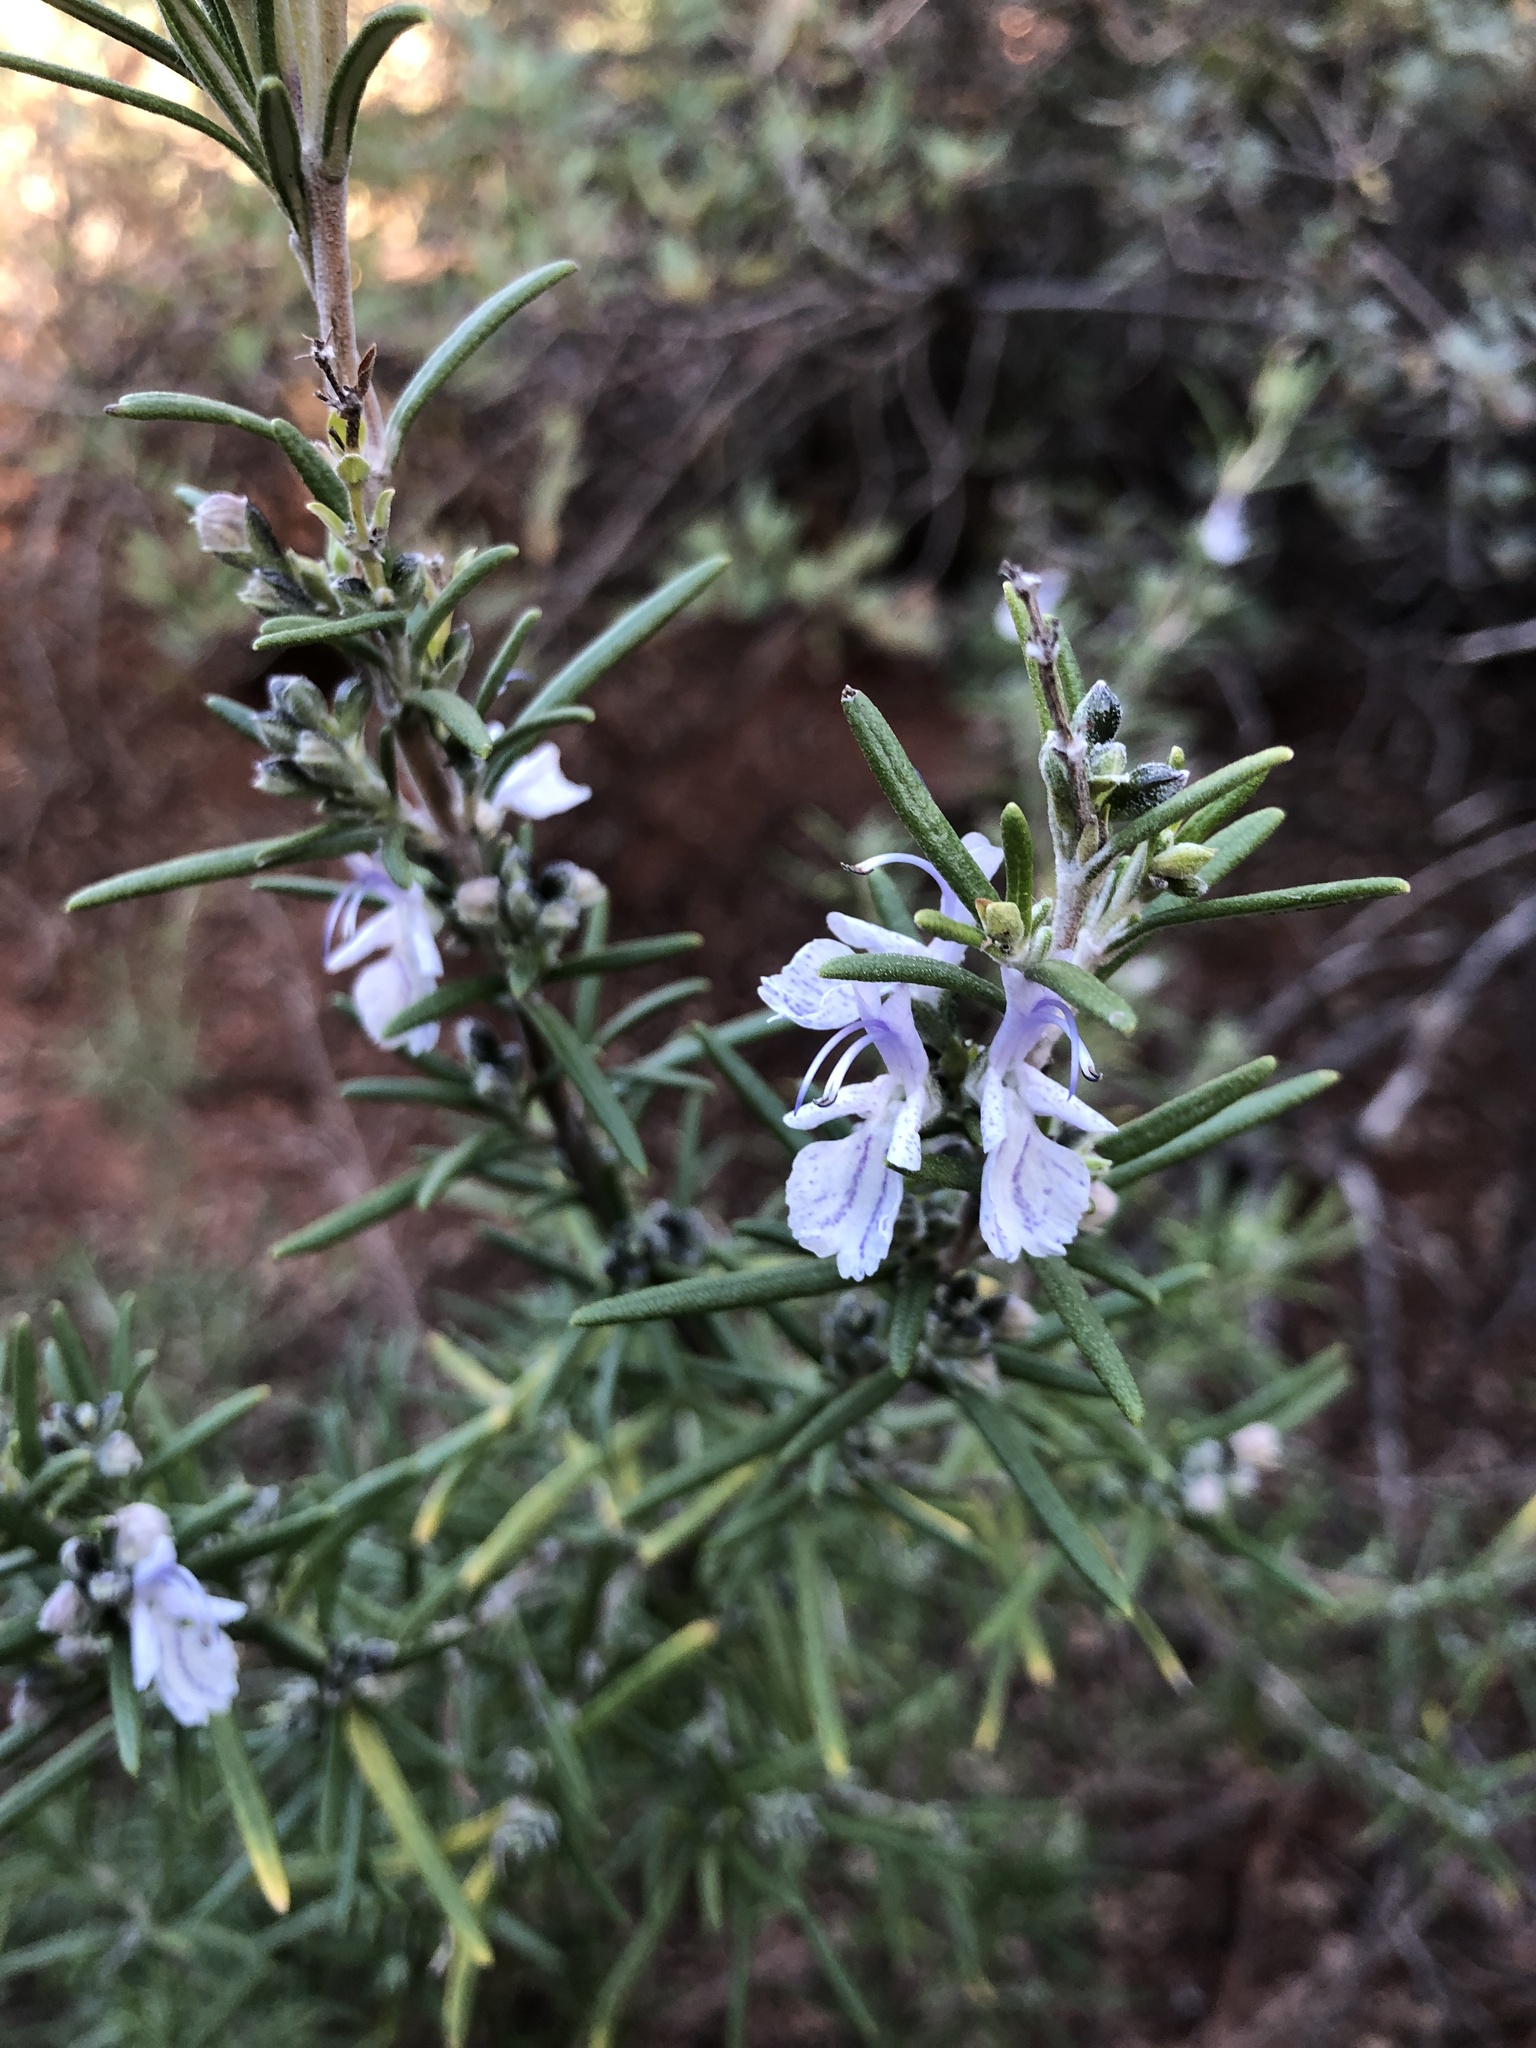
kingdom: Plantae
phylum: Tracheophyta
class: Magnoliopsida
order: Lamiales
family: Lamiaceae
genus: Salvia
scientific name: Salvia rosmarinus
